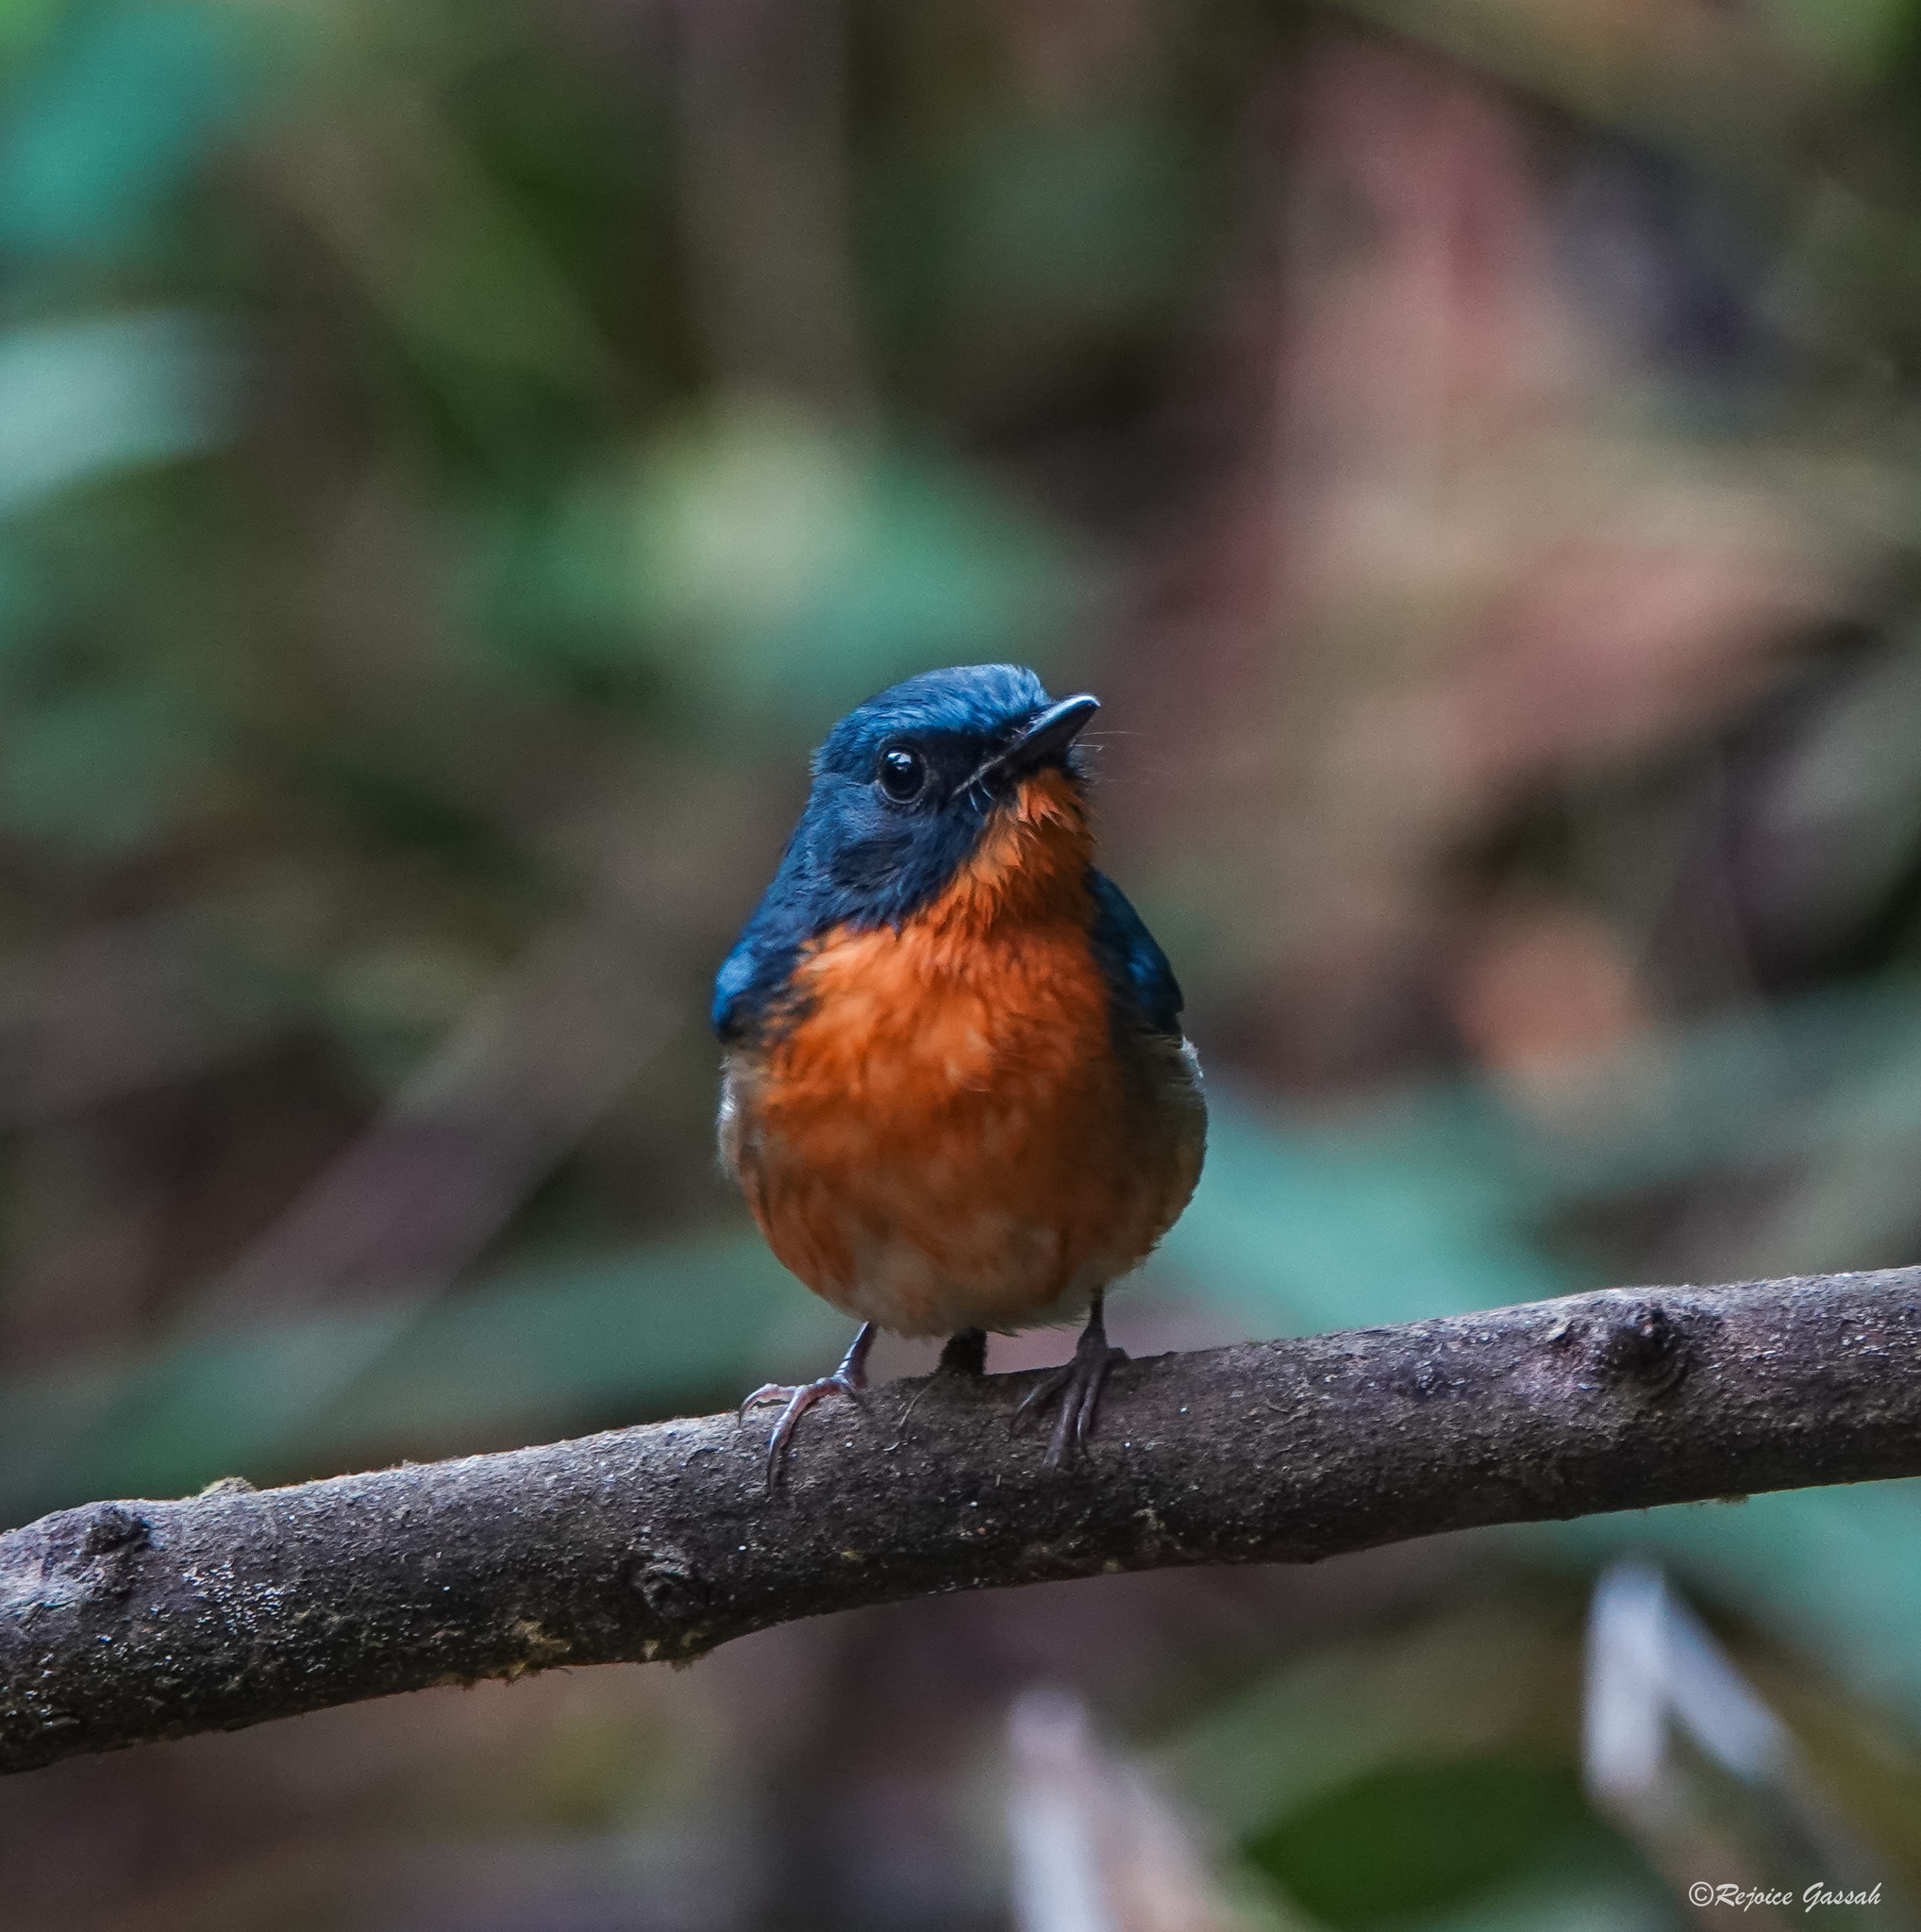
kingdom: Animalia
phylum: Chordata
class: Aves
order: Passeriformes
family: Muscicapidae
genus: Cyornis
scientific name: Cyornis whitei
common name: Hill blue flycatcher
